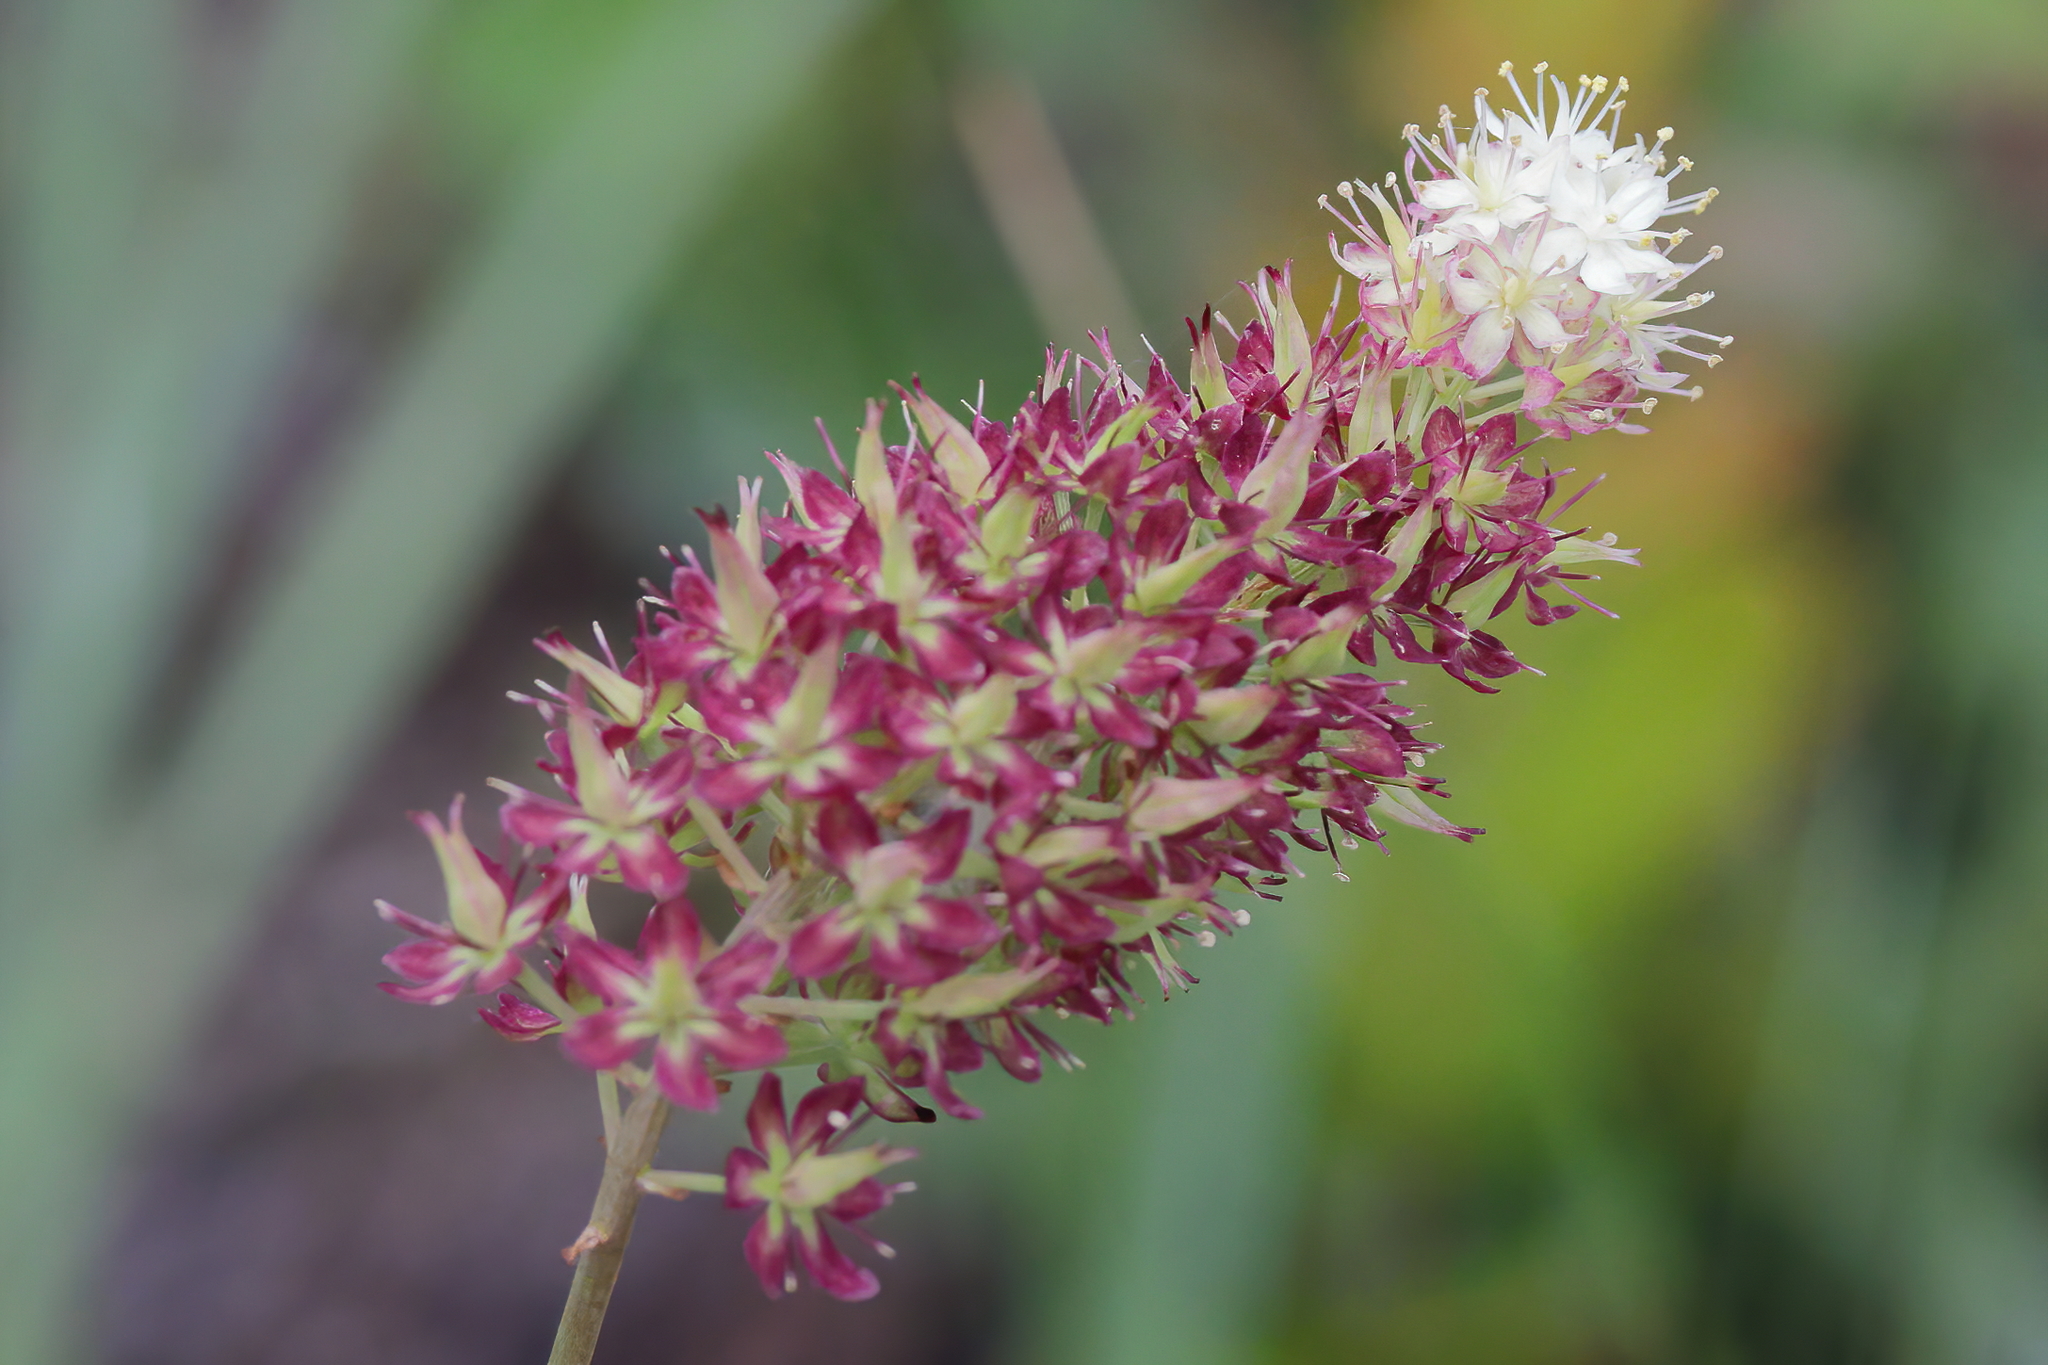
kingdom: Plantae
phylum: Tracheophyta
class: Liliopsida
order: Liliales
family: Melanthiaceae
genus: Stenanthium
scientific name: Stenanthium densum
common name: Crow-poison
